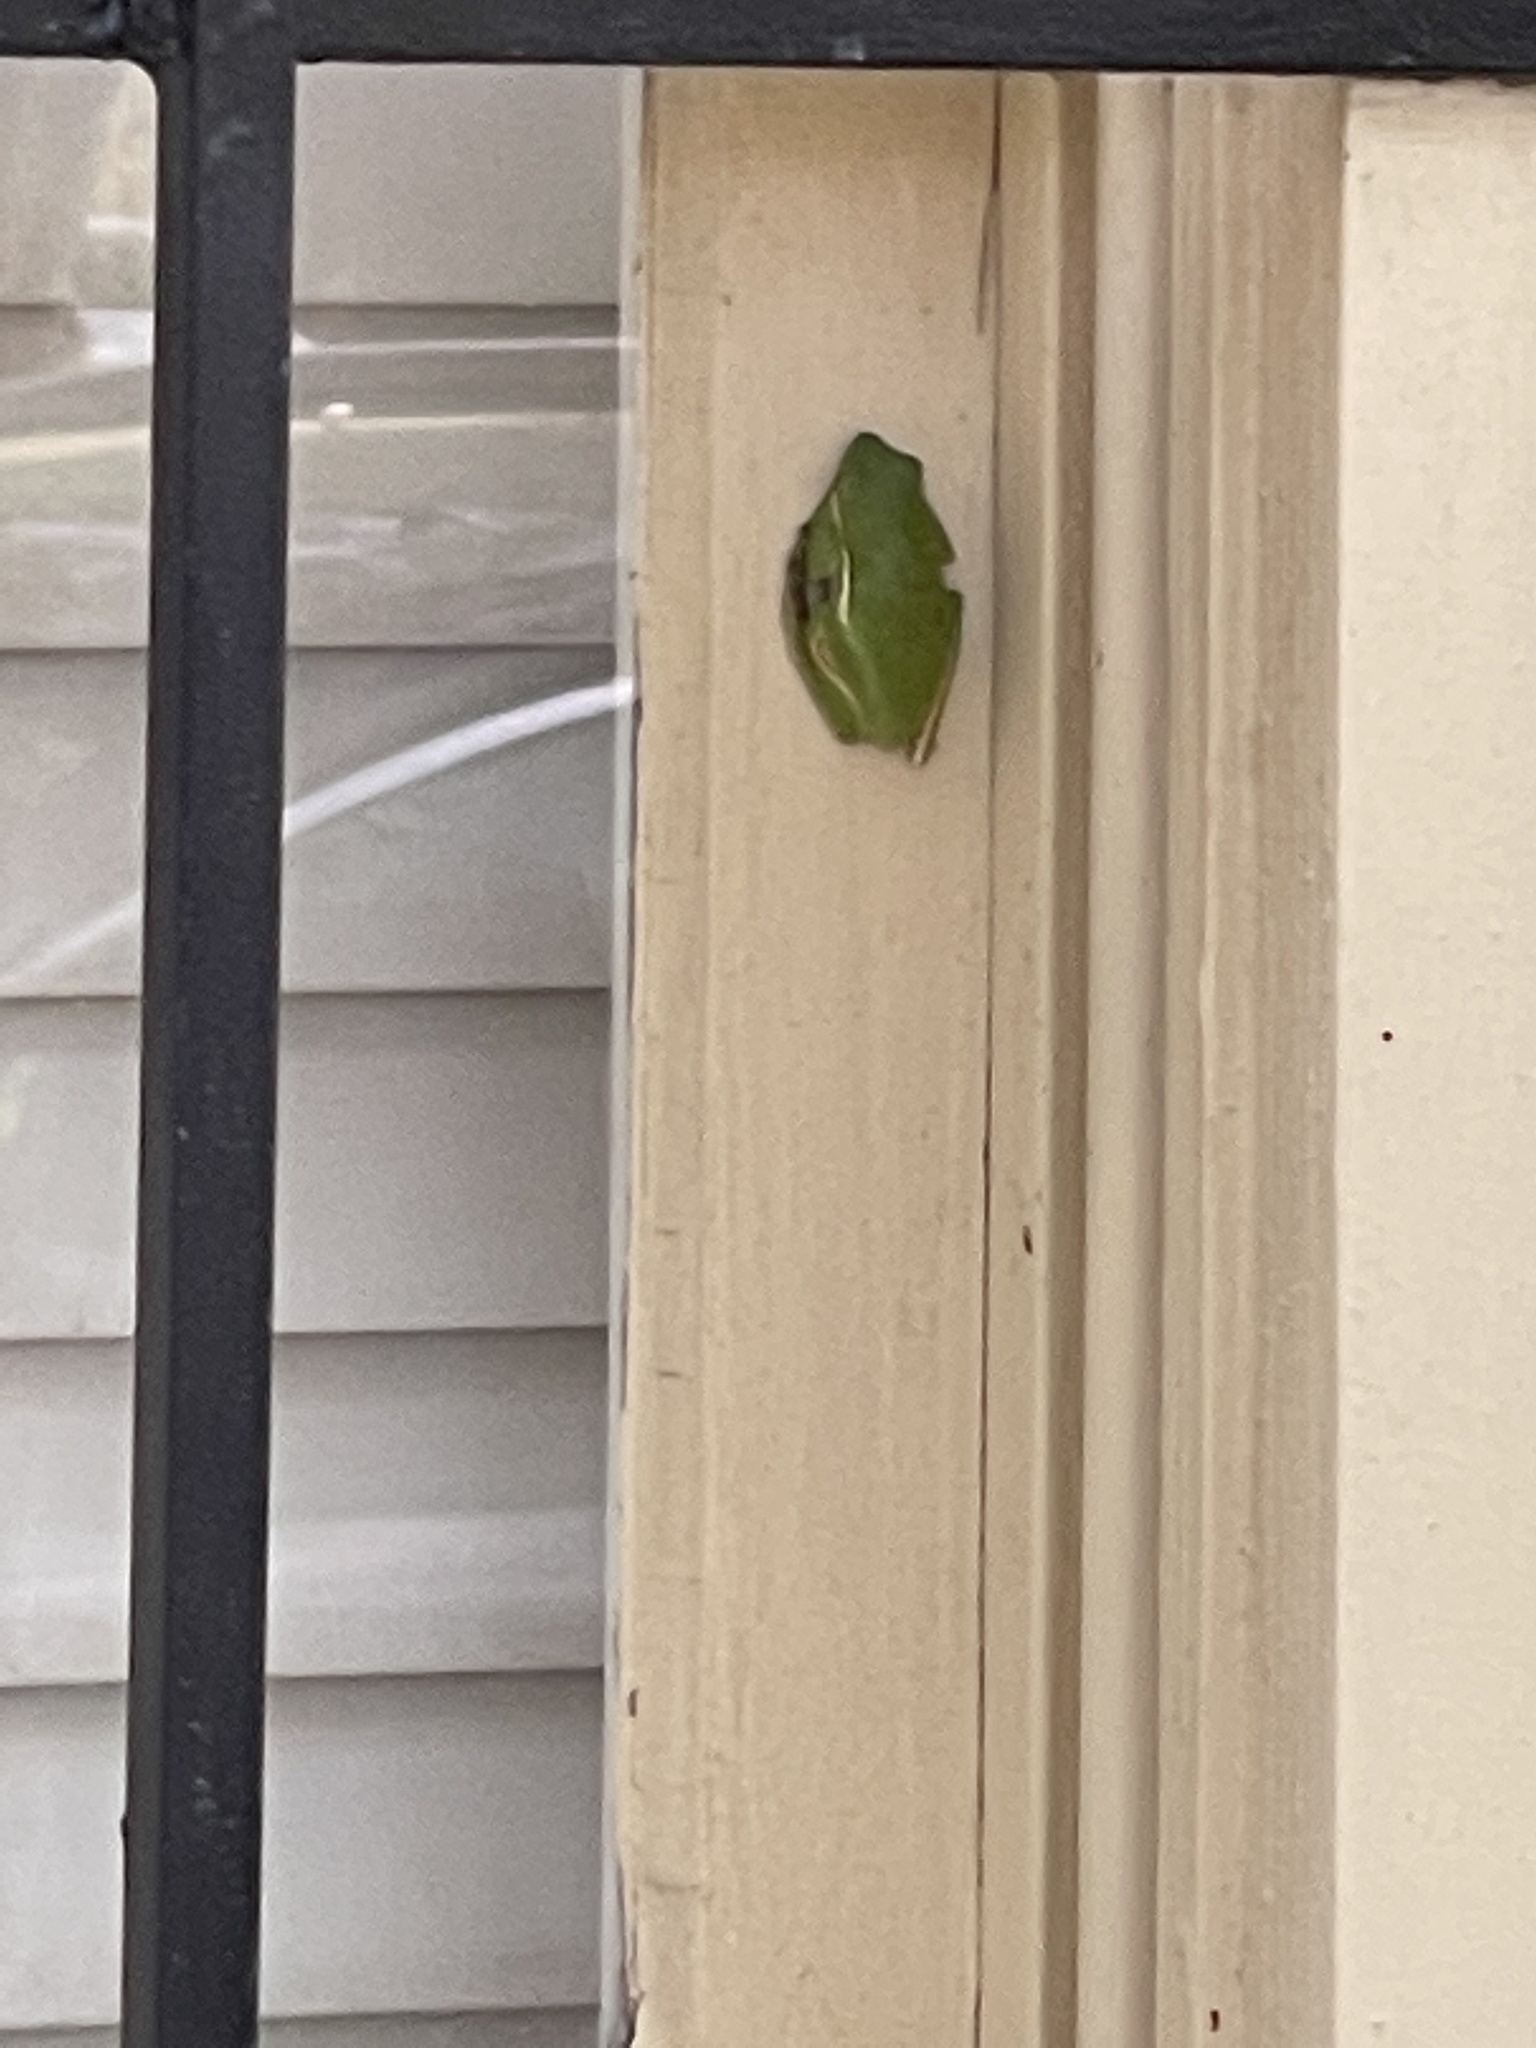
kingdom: Animalia
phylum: Chordata
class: Amphibia
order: Anura
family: Hylidae
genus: Dryophytes
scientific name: Dryophytes cinereus
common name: Green treefrog
